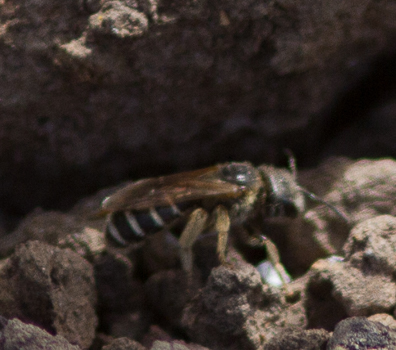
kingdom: Animalia
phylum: Arthropoda
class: Insecta
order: Hymenoptera
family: Halictidae
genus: Halictus
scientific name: Halictus ligatus
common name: Ligated furrow bee
